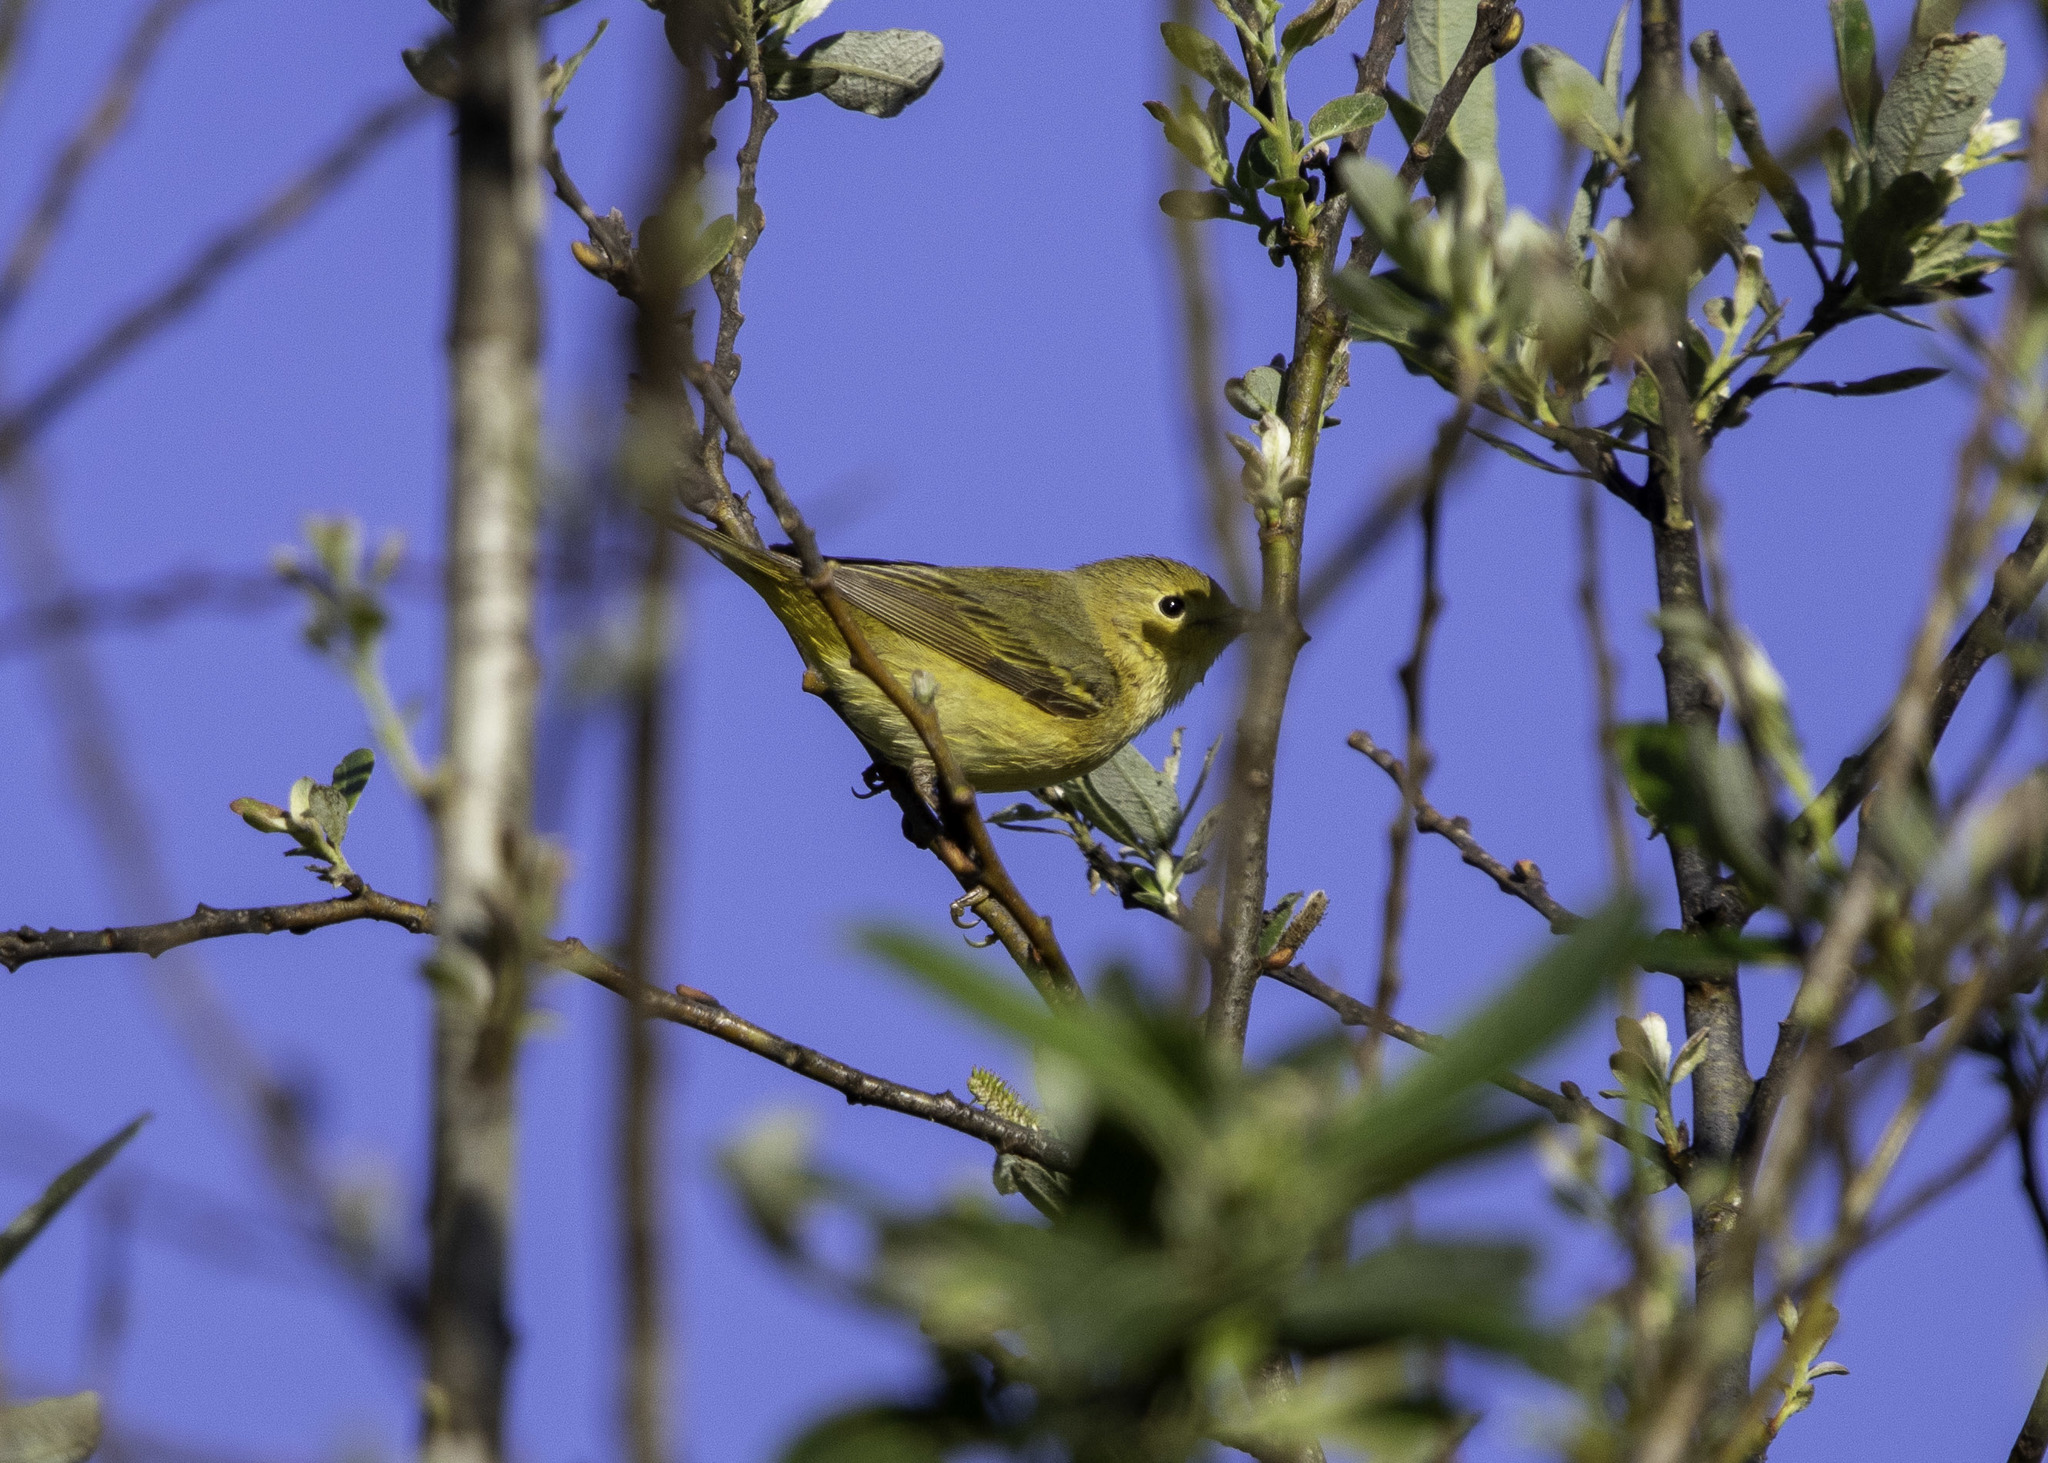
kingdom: Animalia
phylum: Chordata
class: Aves
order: Passeriformes
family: Parulidae
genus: Setophaga
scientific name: Setophaga petechia
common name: Yellow warbler
